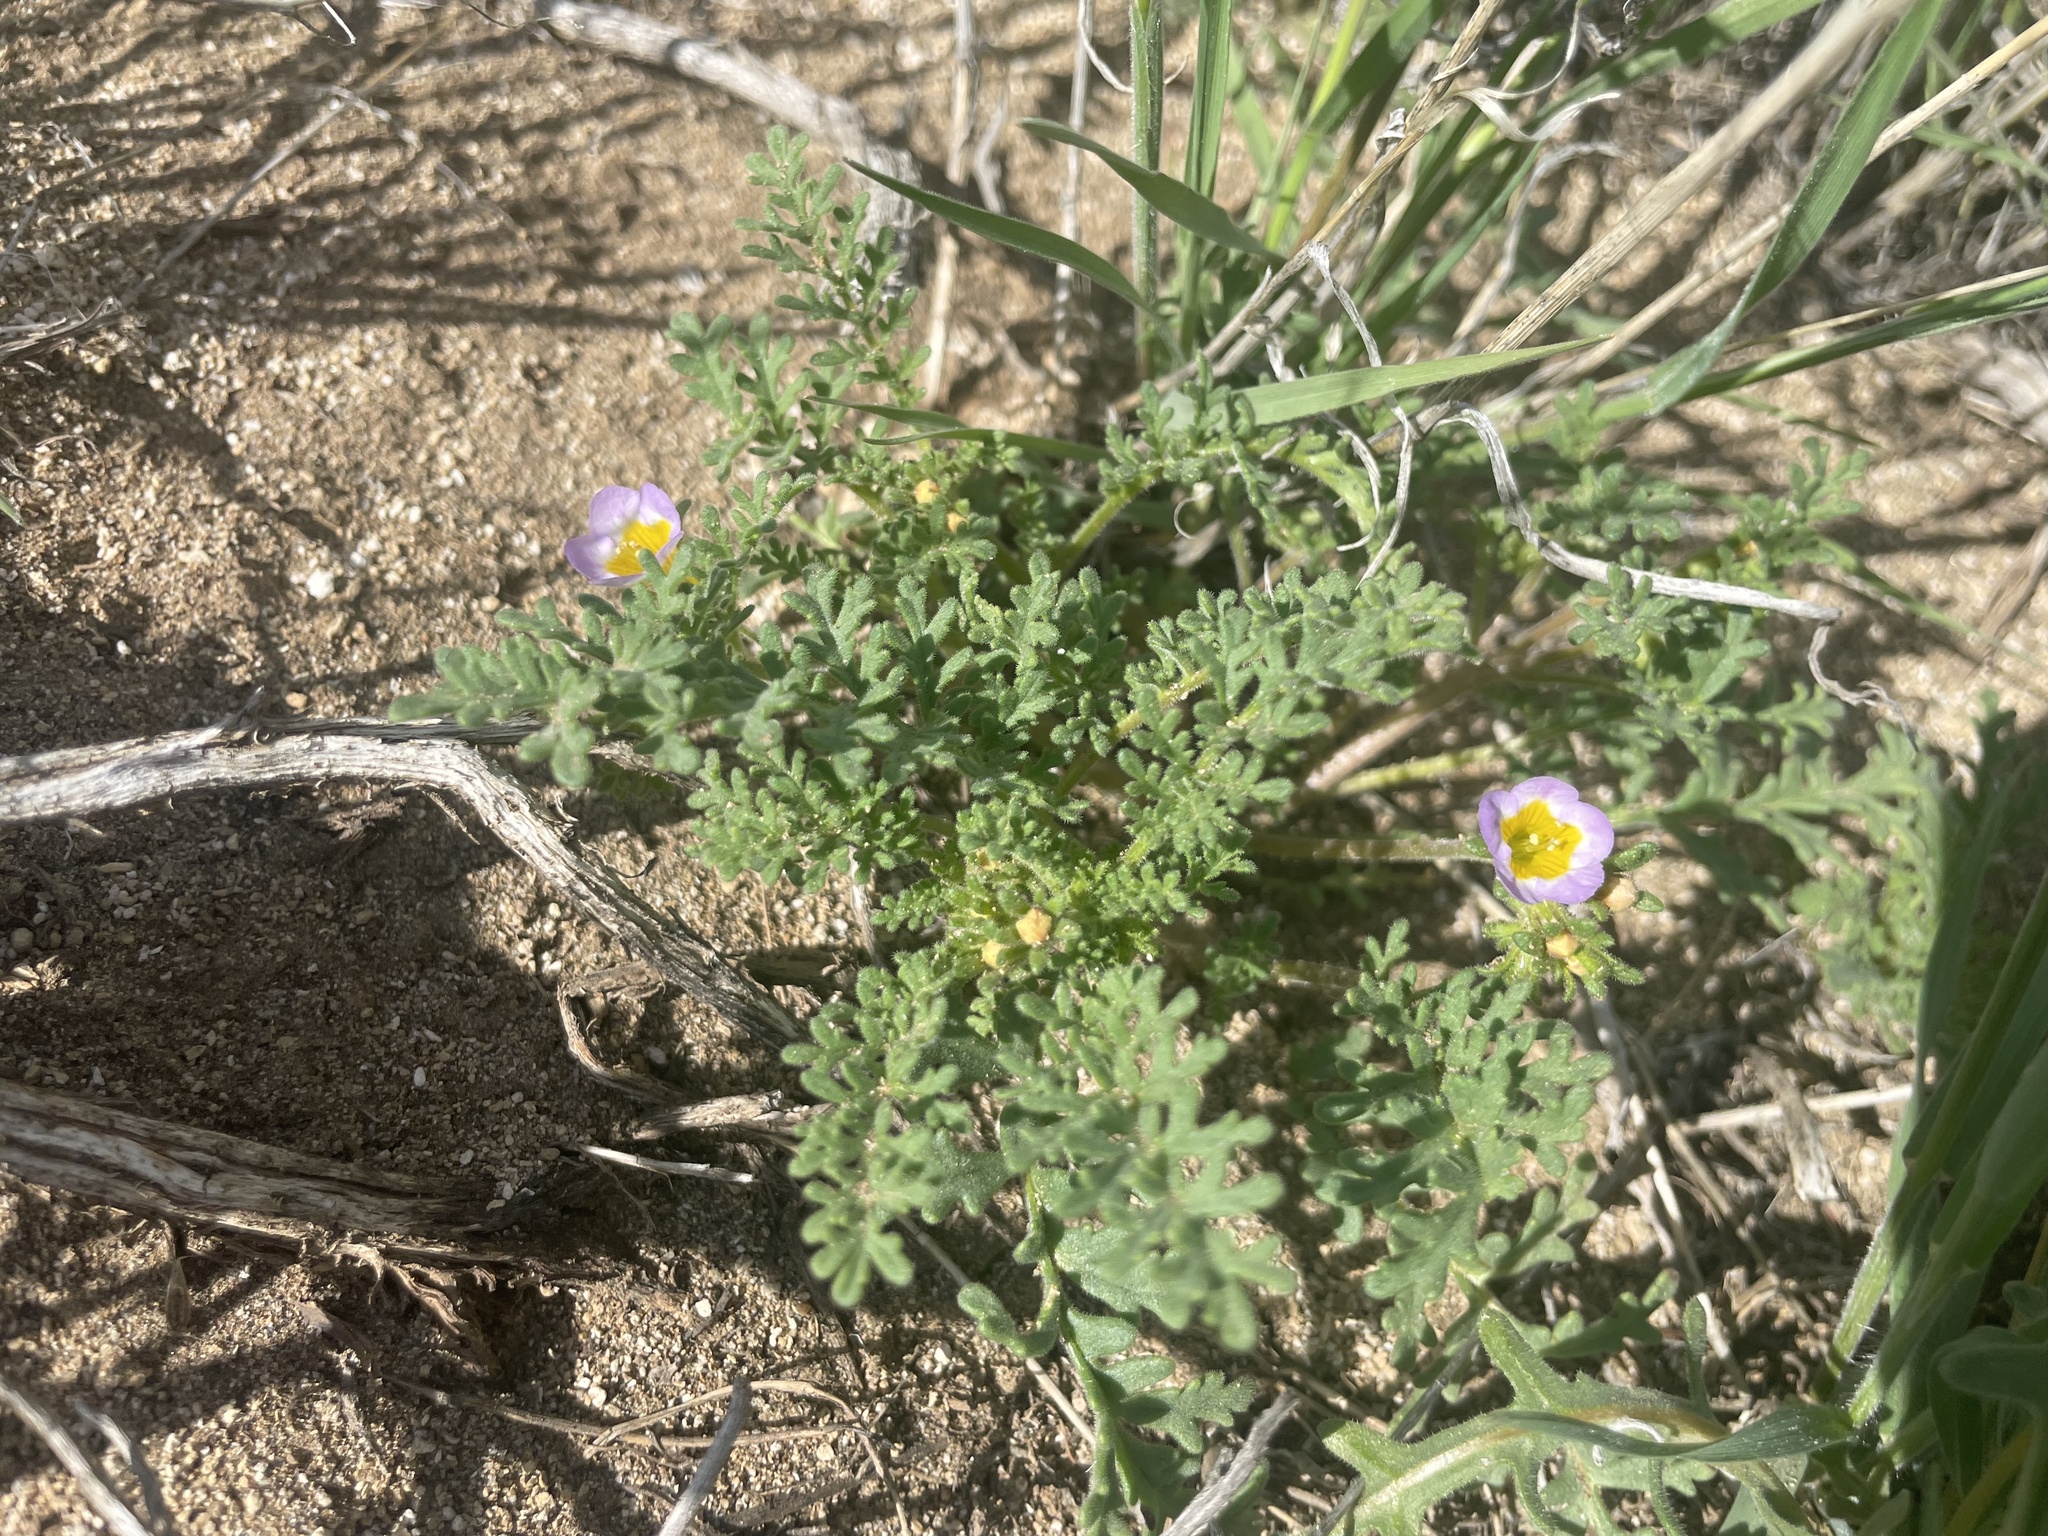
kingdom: Plantae
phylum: Tracheophyta
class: Magnoliopsida
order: Boraginales
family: Hydrophyllaceae
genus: Phacelia
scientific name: Phacelia bicolor
